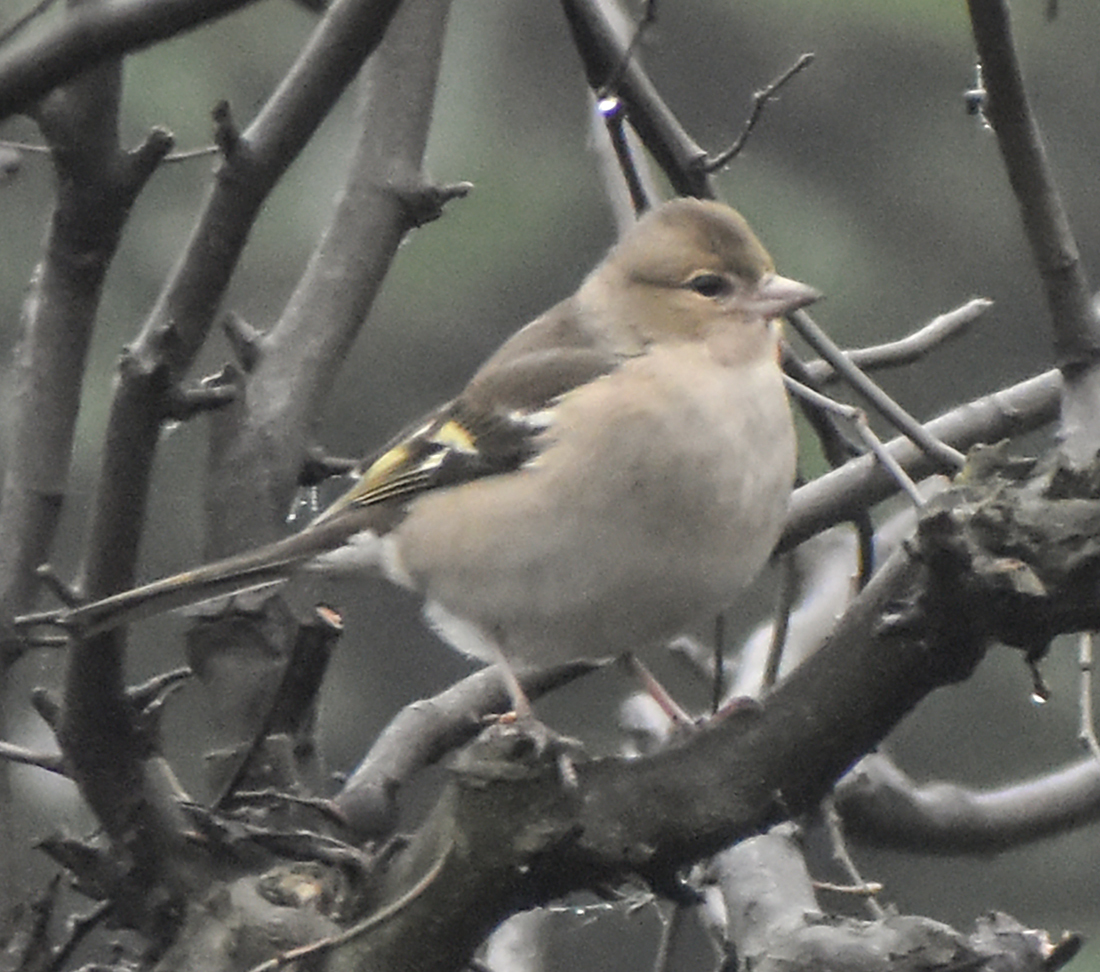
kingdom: Animalia
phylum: Chordata
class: Aves
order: Passeriformes
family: Fringillidae
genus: Fringilla
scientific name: Fringilla coelebs
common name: Common chaffinch
